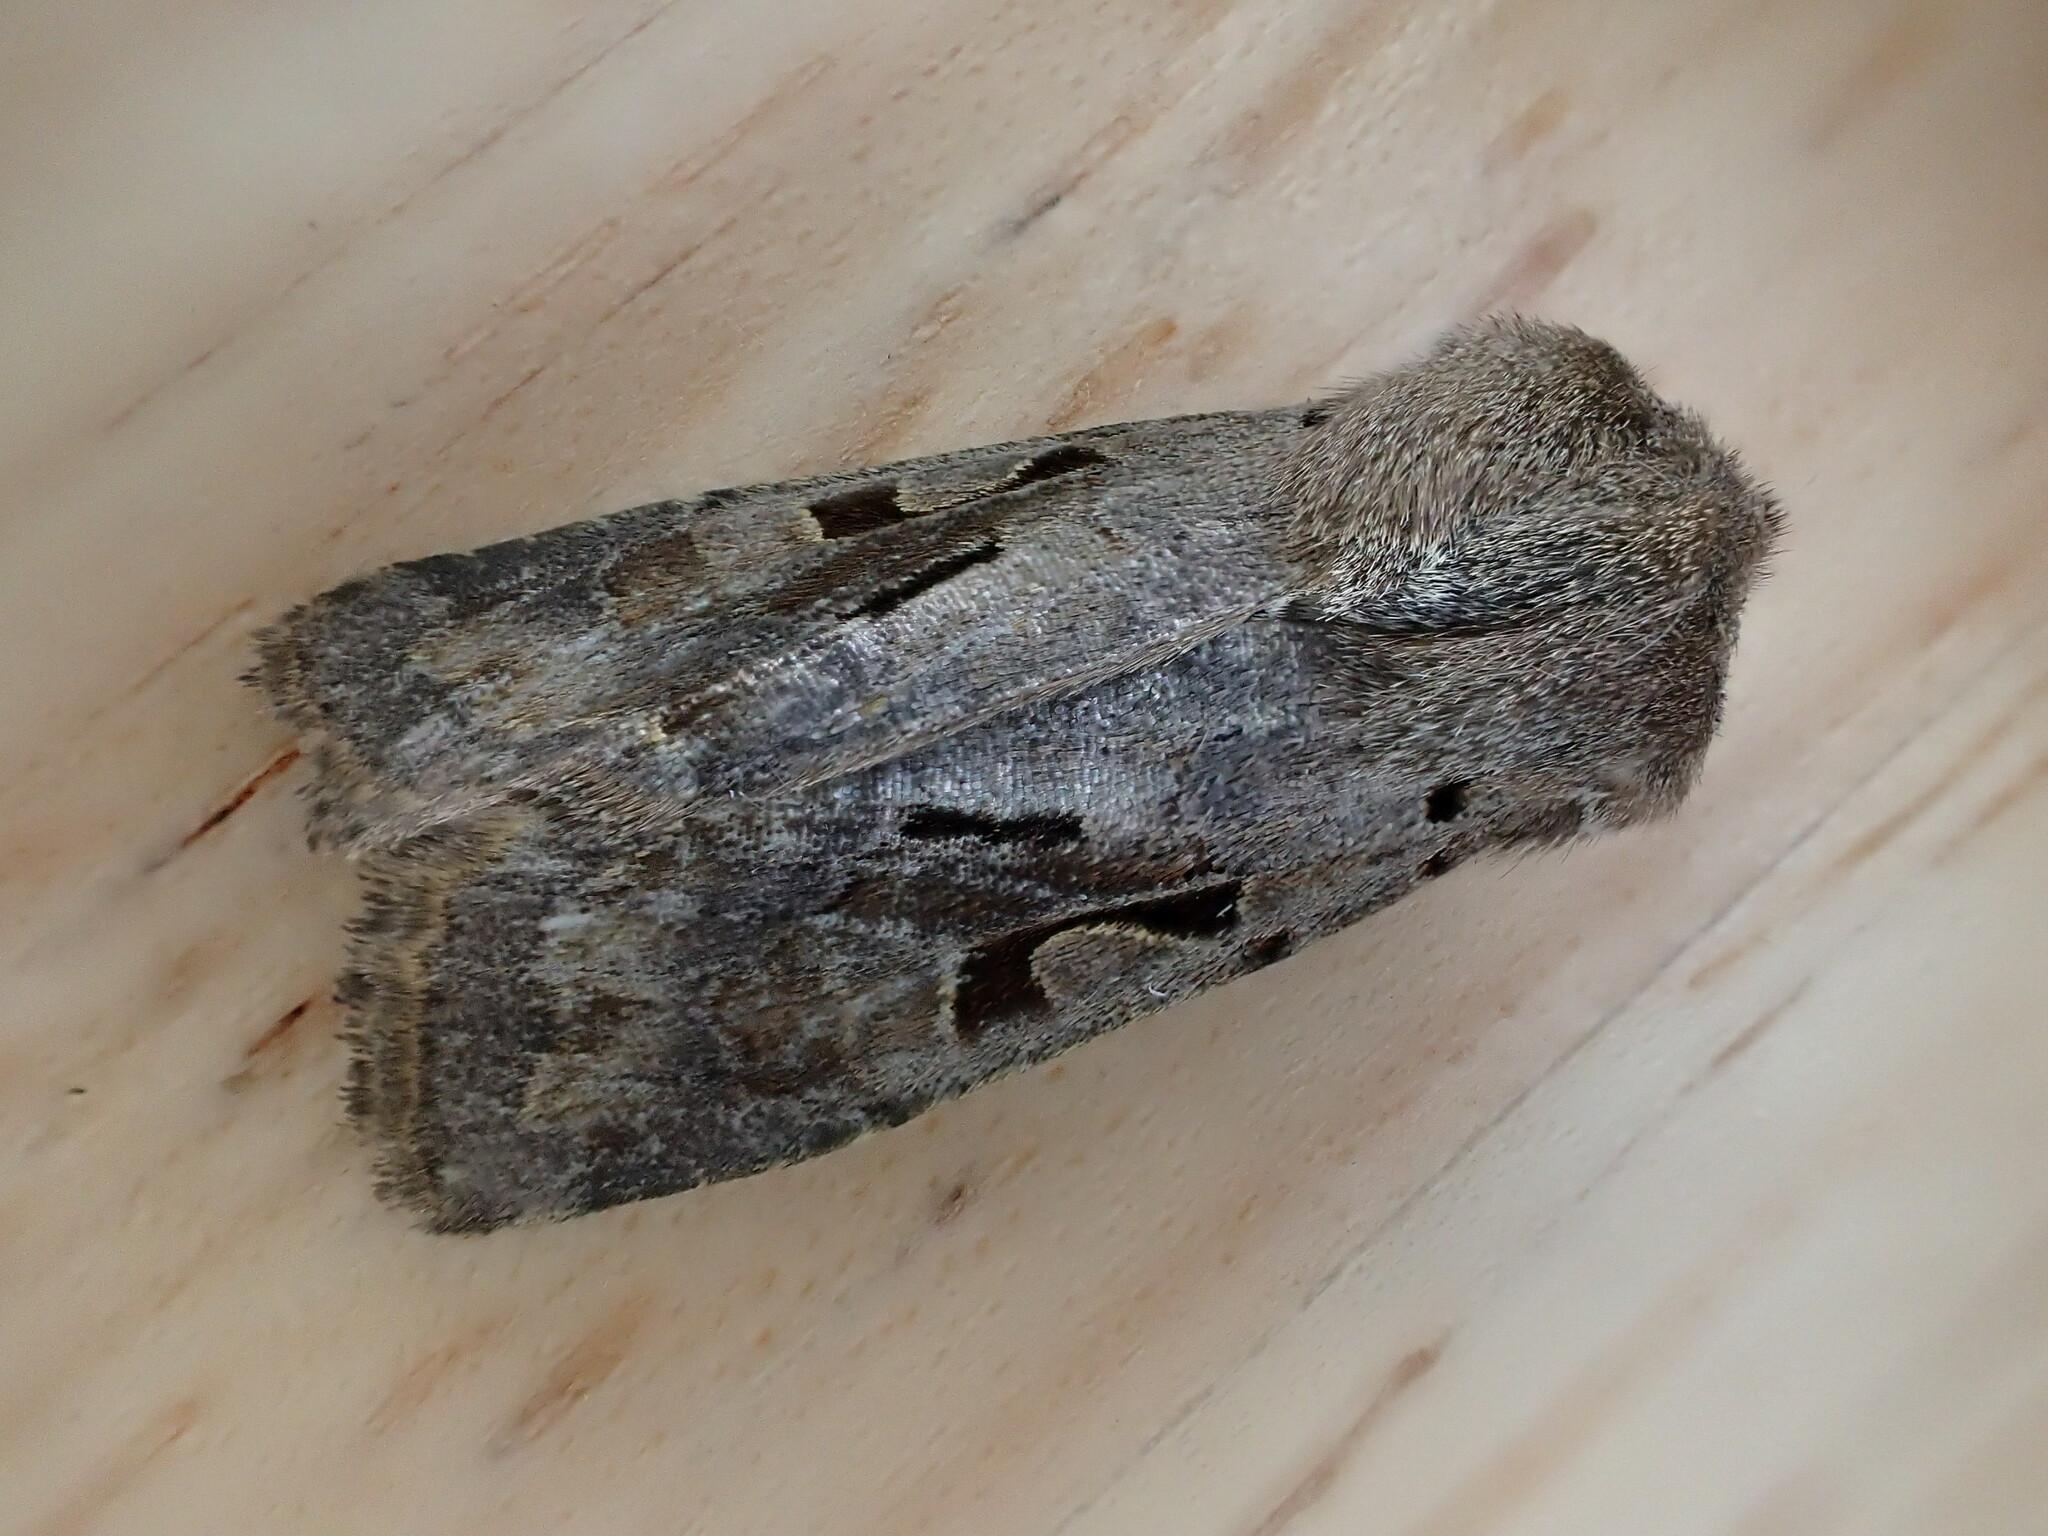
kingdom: Animalia
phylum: Arthropoda
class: Insecta
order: Lepidoptera
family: Noctuidae
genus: Orthosia
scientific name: Orthosia gothica
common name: Hebrew character
